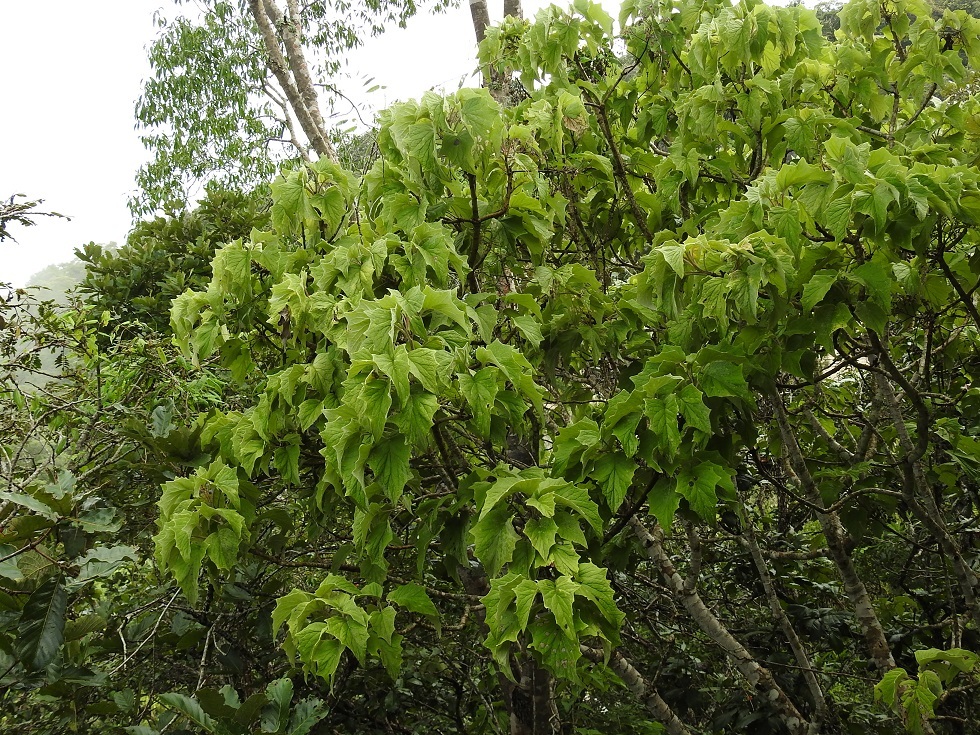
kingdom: Plantae
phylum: Tracheophyta
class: Magnoliopsida
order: Asterales
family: Asteraceae
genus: Pittocaulon
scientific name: Pittocaulon velatum
